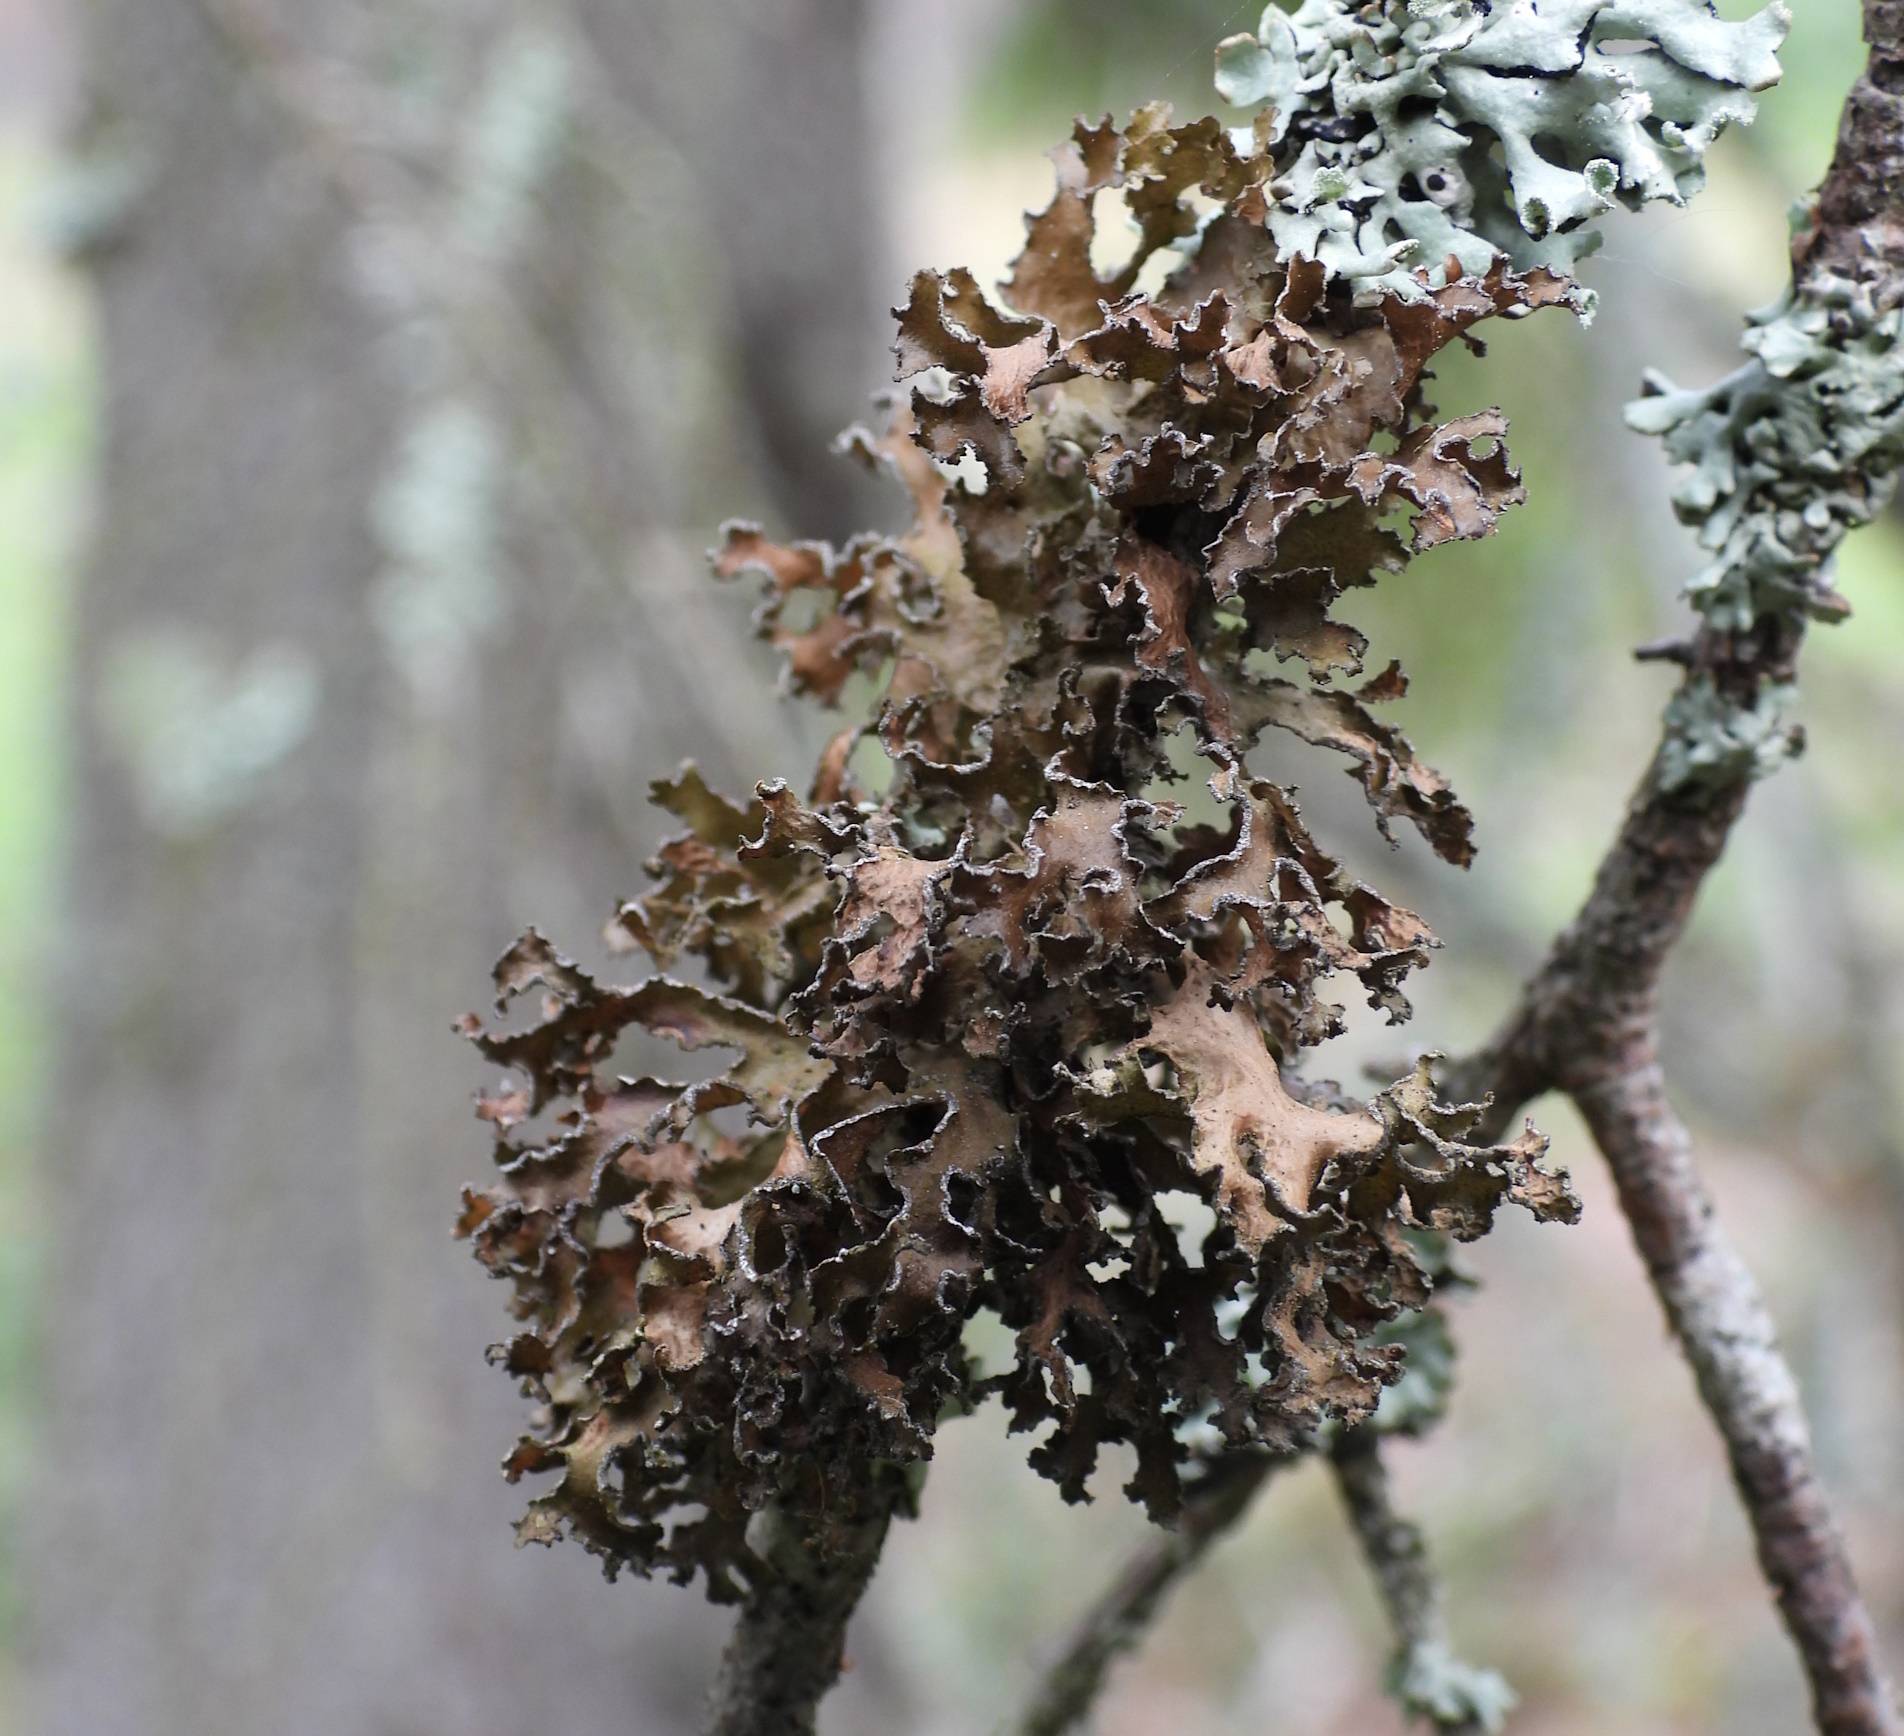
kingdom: Fungi
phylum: Ascomycota
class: Lecanoromycetes
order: Lecanorales
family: Parmeliaceae
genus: Nephromopsis
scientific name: Nephromopsis chlorophylla
